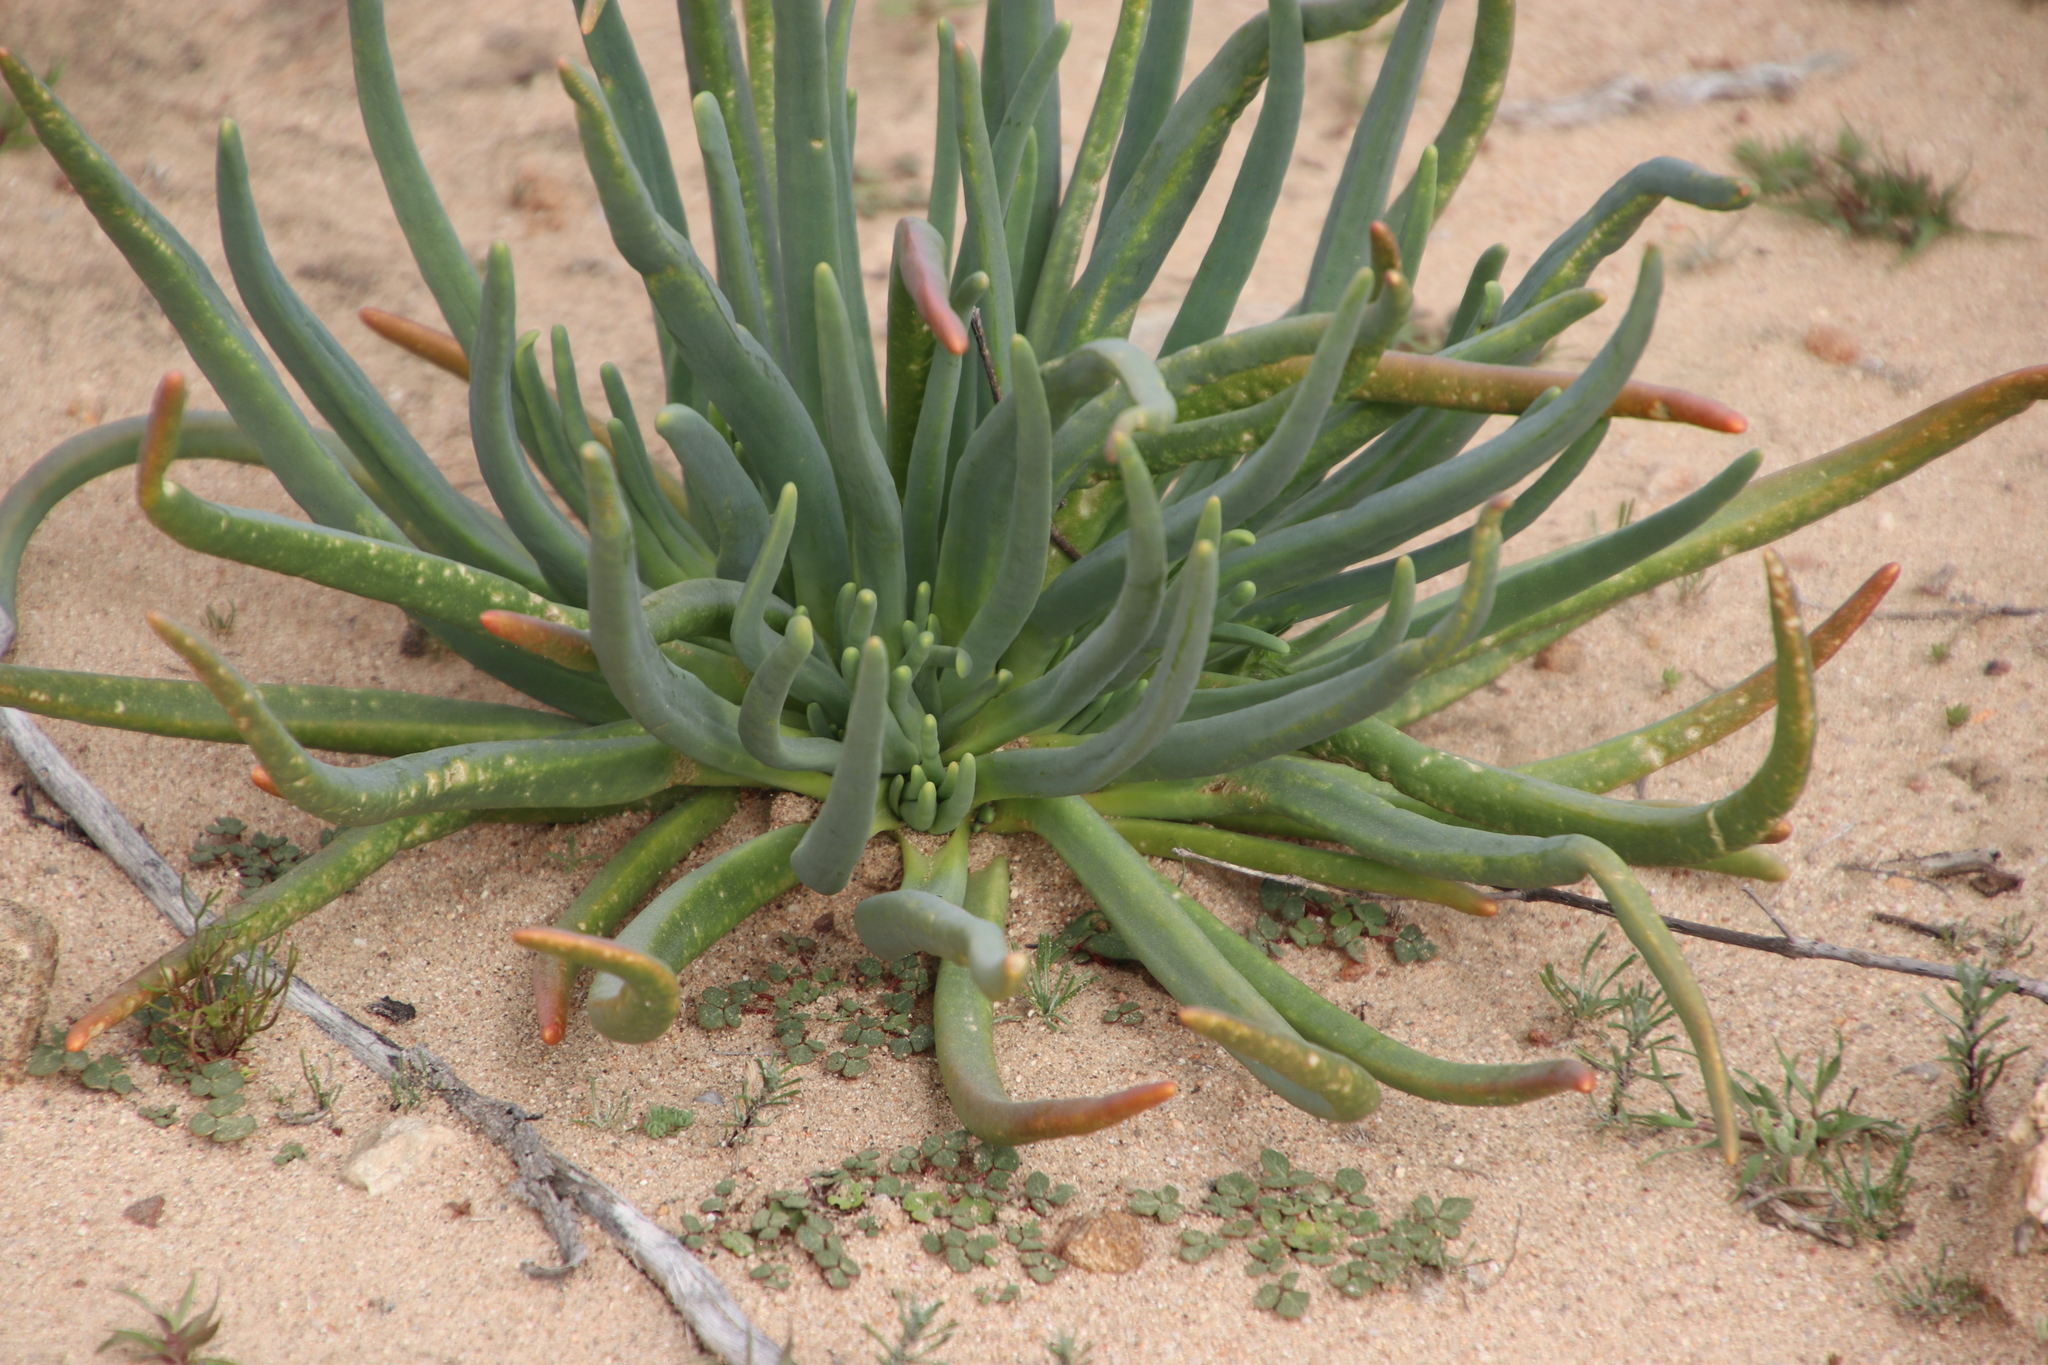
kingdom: Plantae
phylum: Tracheophyta
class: Magnoliopsida
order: Caryophyllales
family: Aizoaceae
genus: Conicosia
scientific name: Conicosia pugioniformis
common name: Narrow-leaved iceplant
